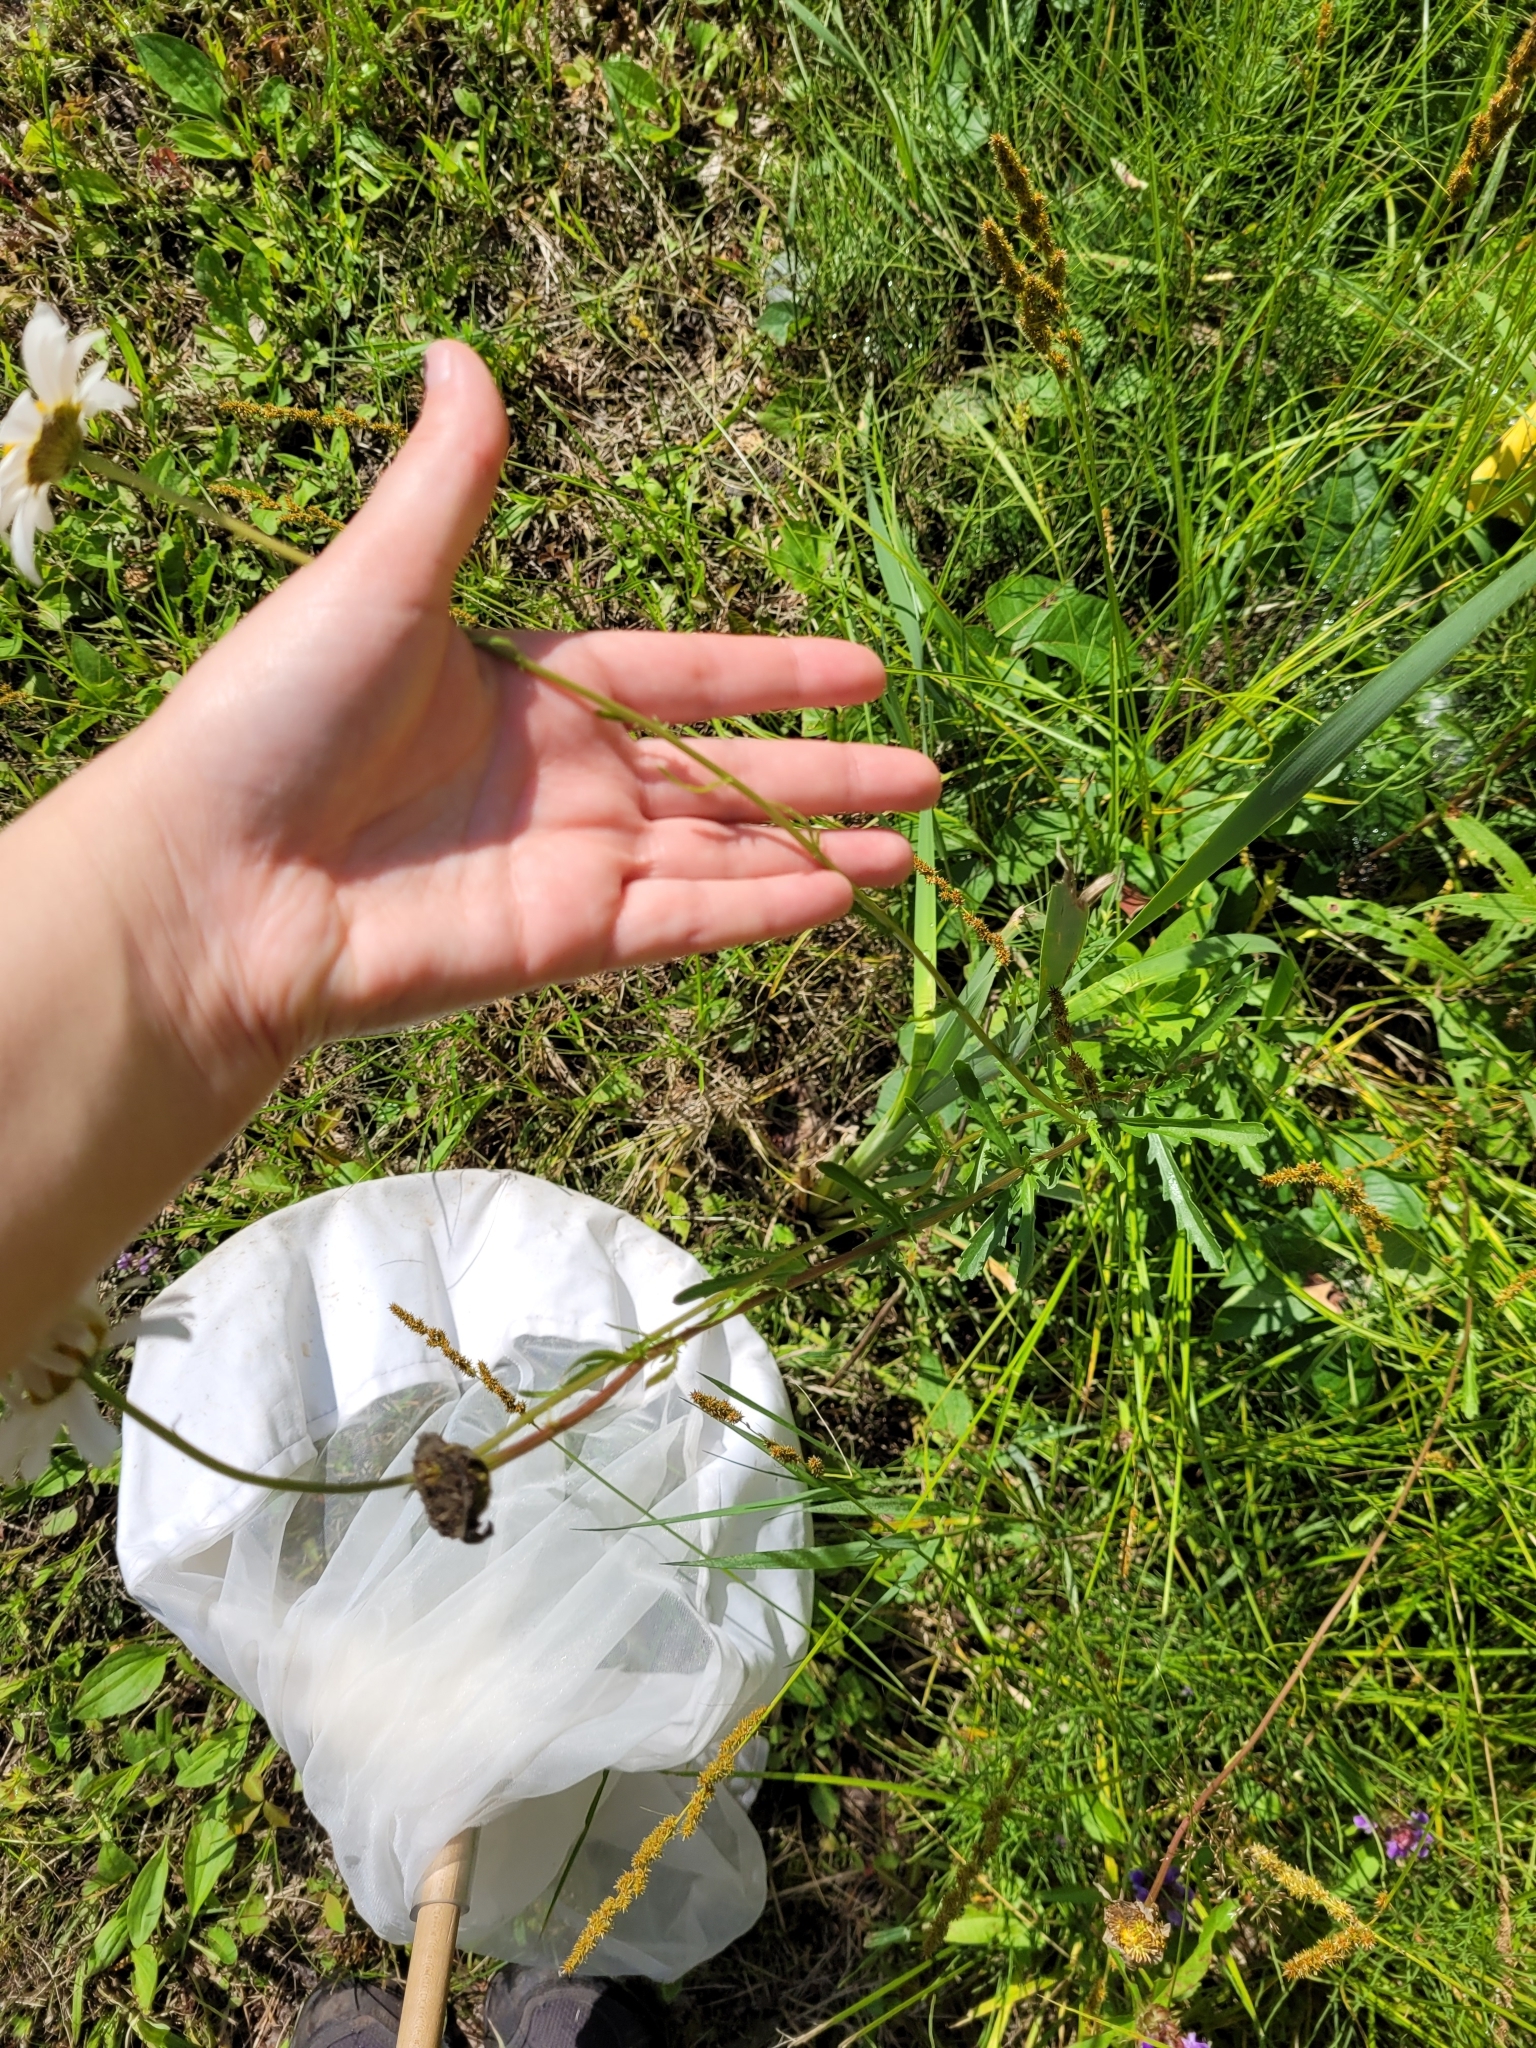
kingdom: Plantae
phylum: Tracheophyta
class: Magnoliopsida
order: Asterales
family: Asteraceae
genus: Leucanthemum
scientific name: Leucanthemum vulgare
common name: Oxeye daisy
